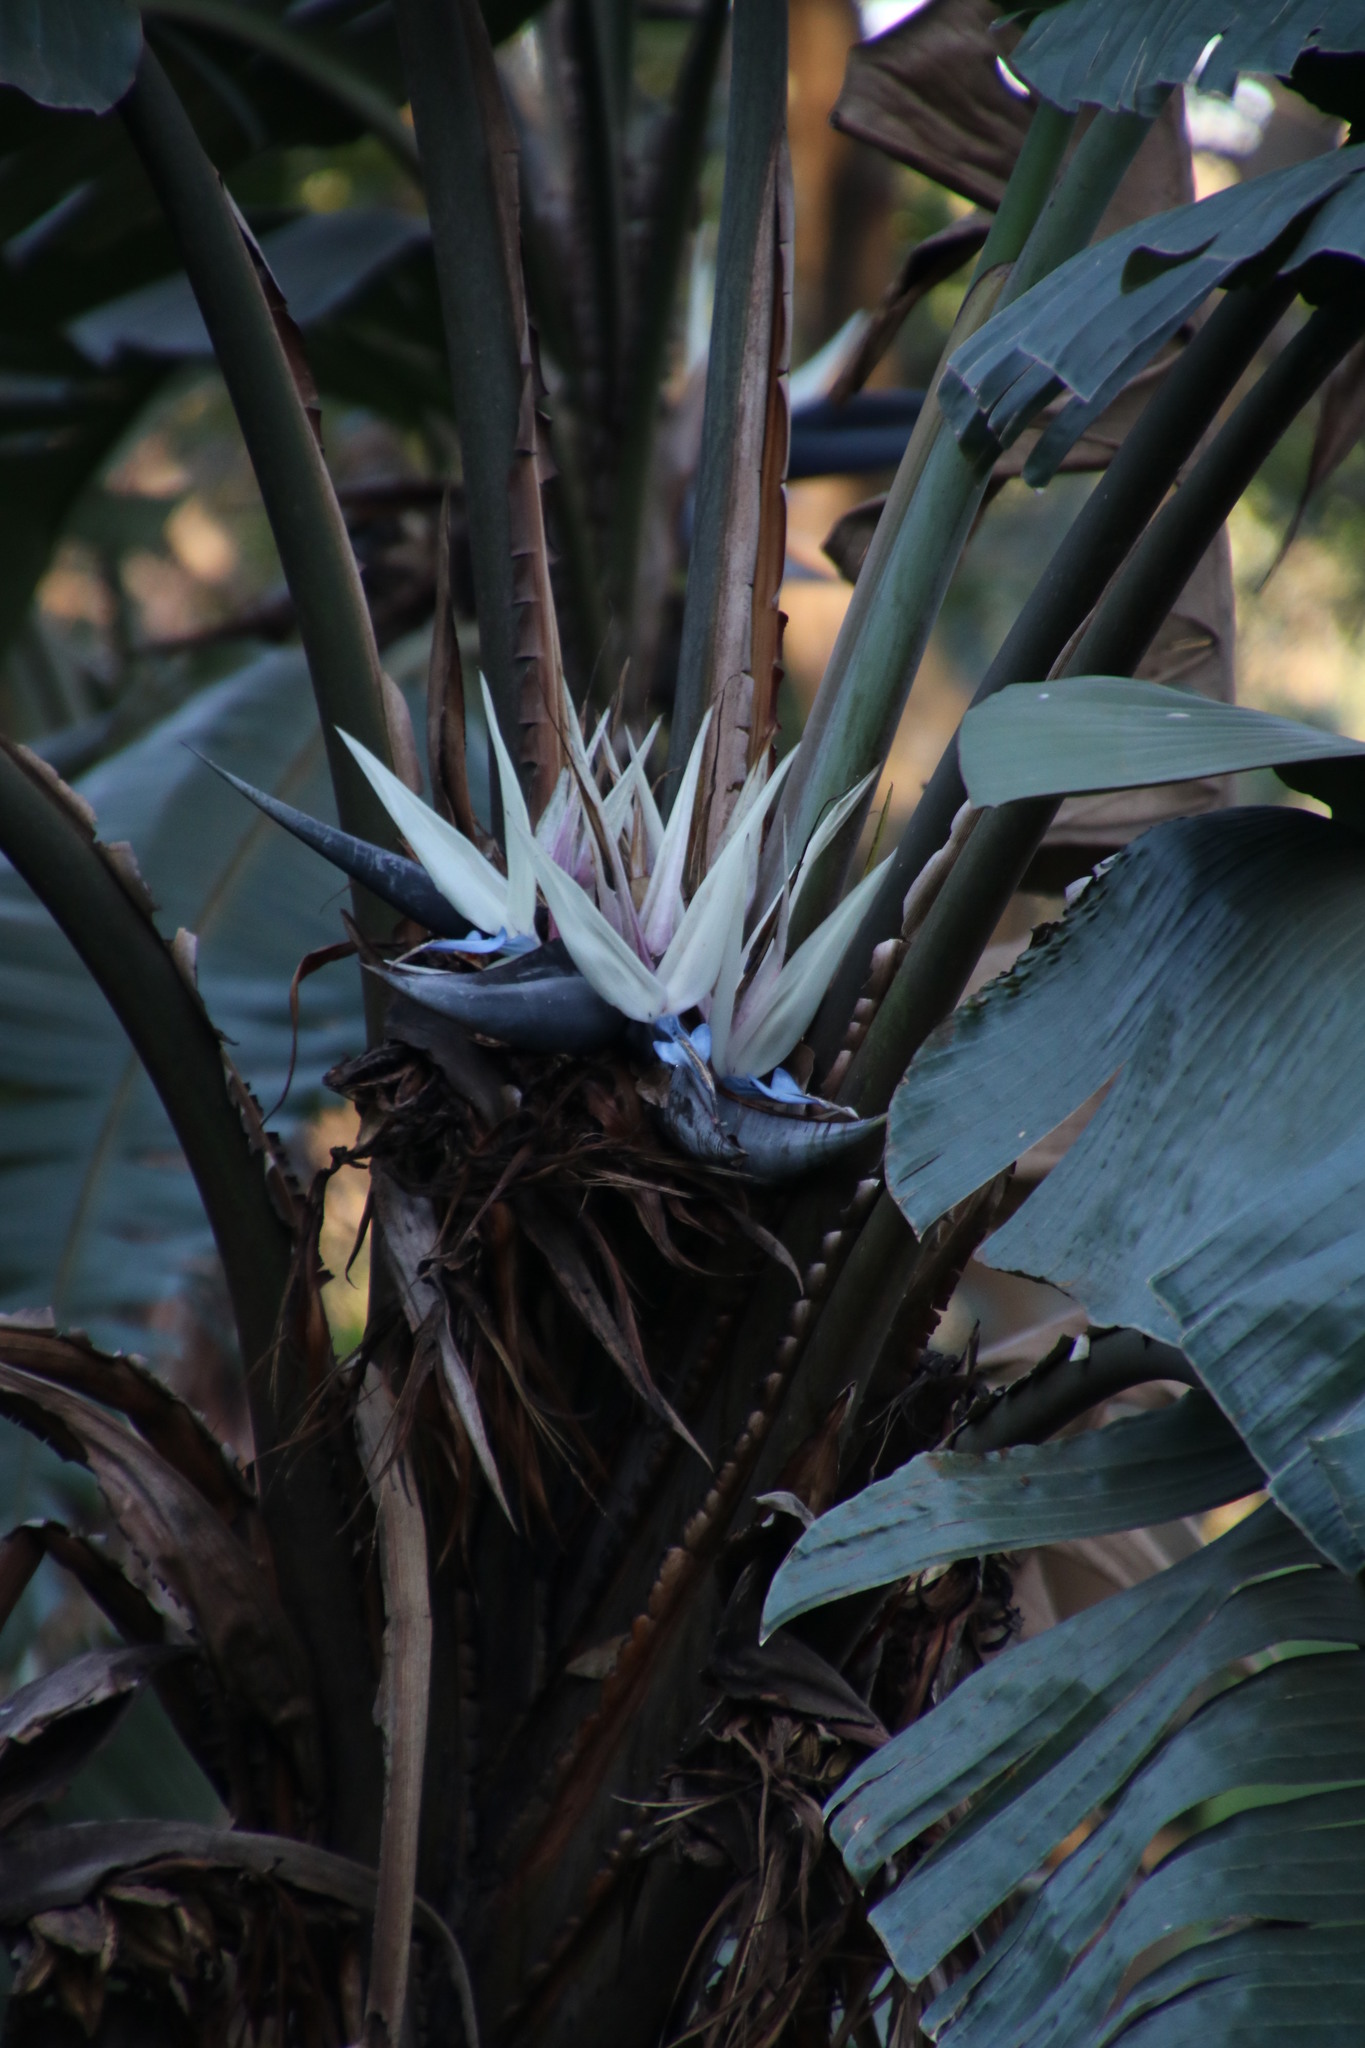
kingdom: Plantae
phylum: Tracheophyta
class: Liliopsida
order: Zingiberales
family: Strelitziaceae
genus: Strelitzia
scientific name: Strelitzia nicolai
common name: Bird-of-paradise tree
